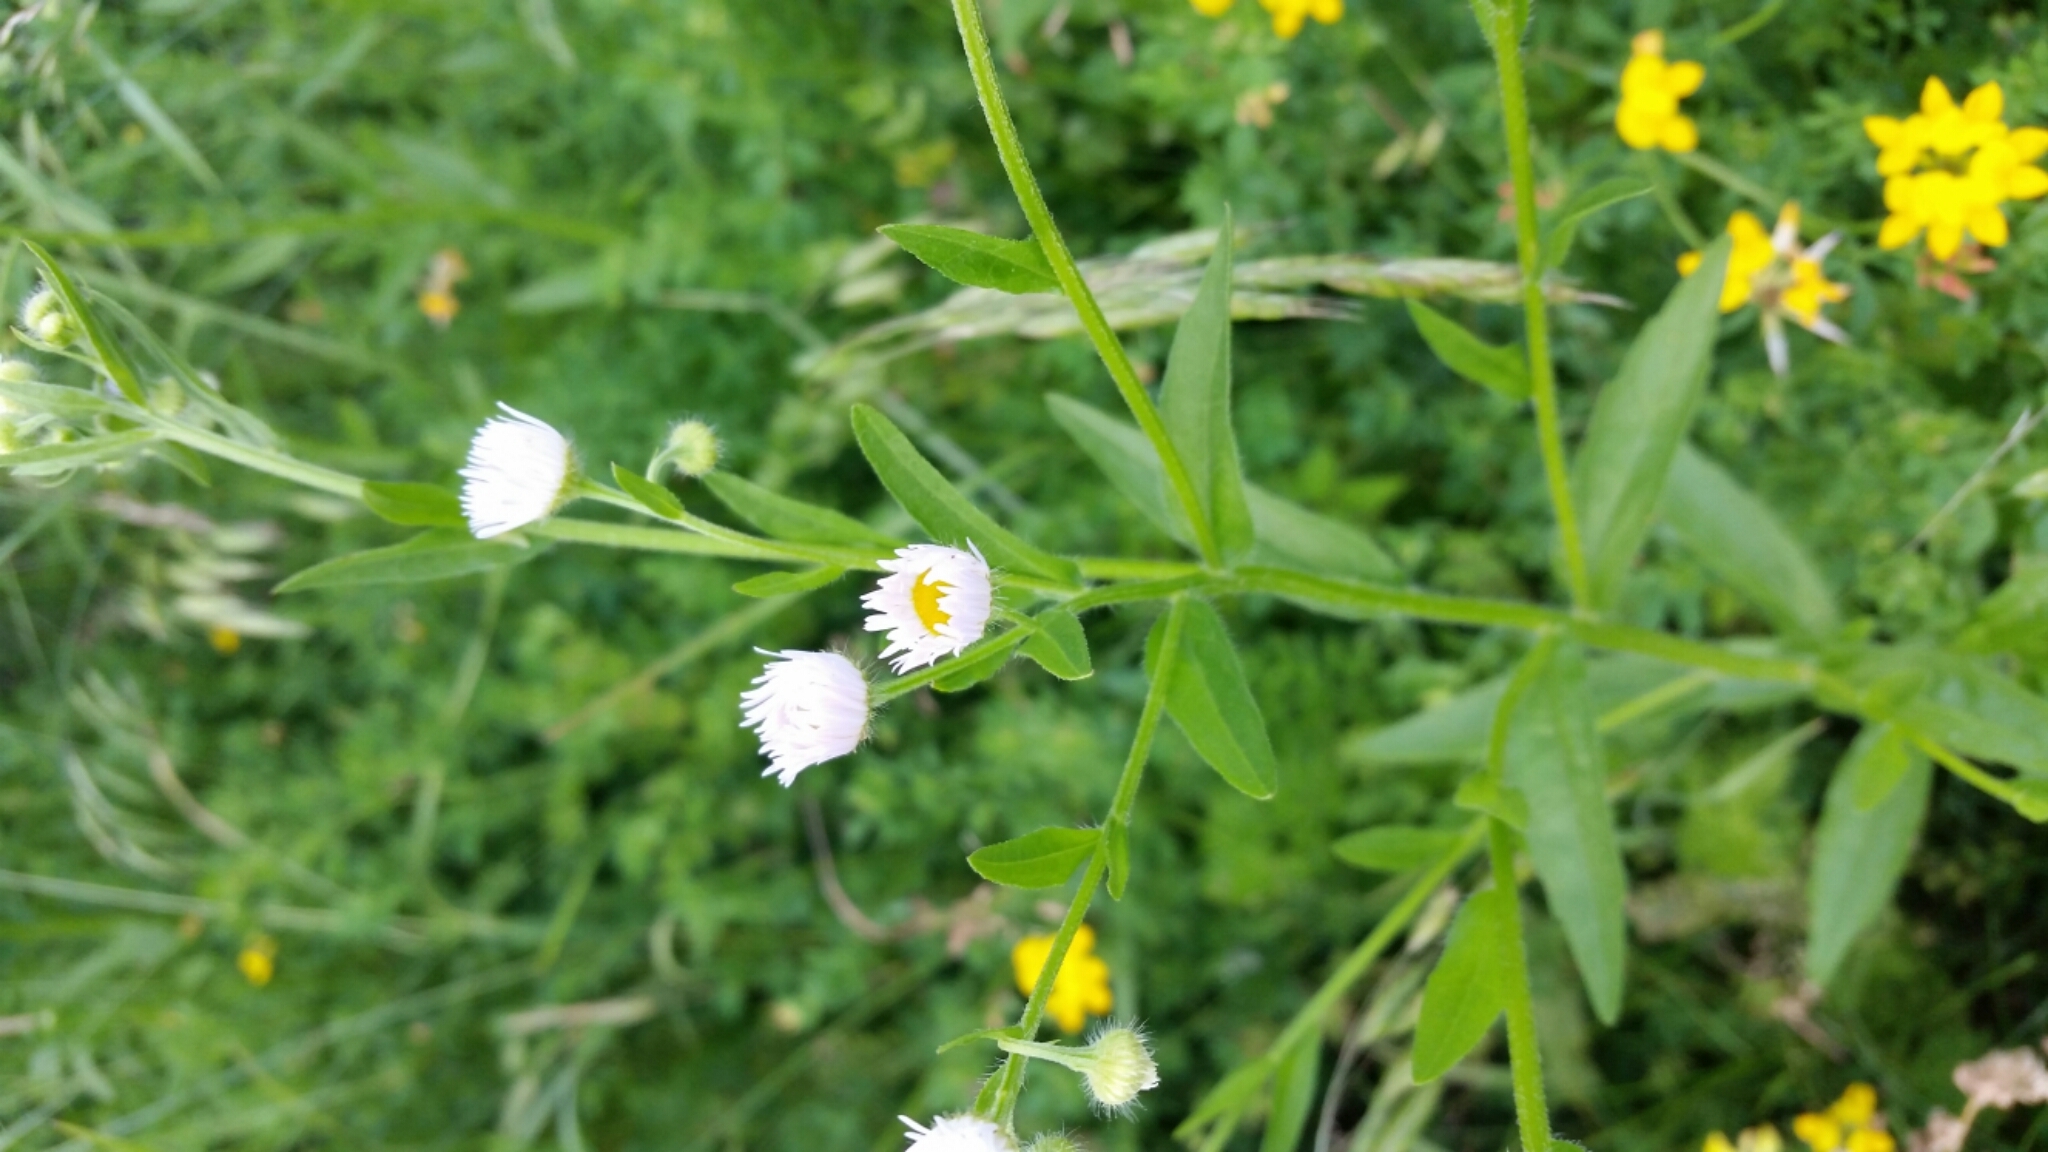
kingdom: Plantae
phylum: Tracheophyta
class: Magnoliopsida
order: Asterales
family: Asteraceae
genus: Erigeron
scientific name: Erigeron strigosus
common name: Common eastern fleabane
